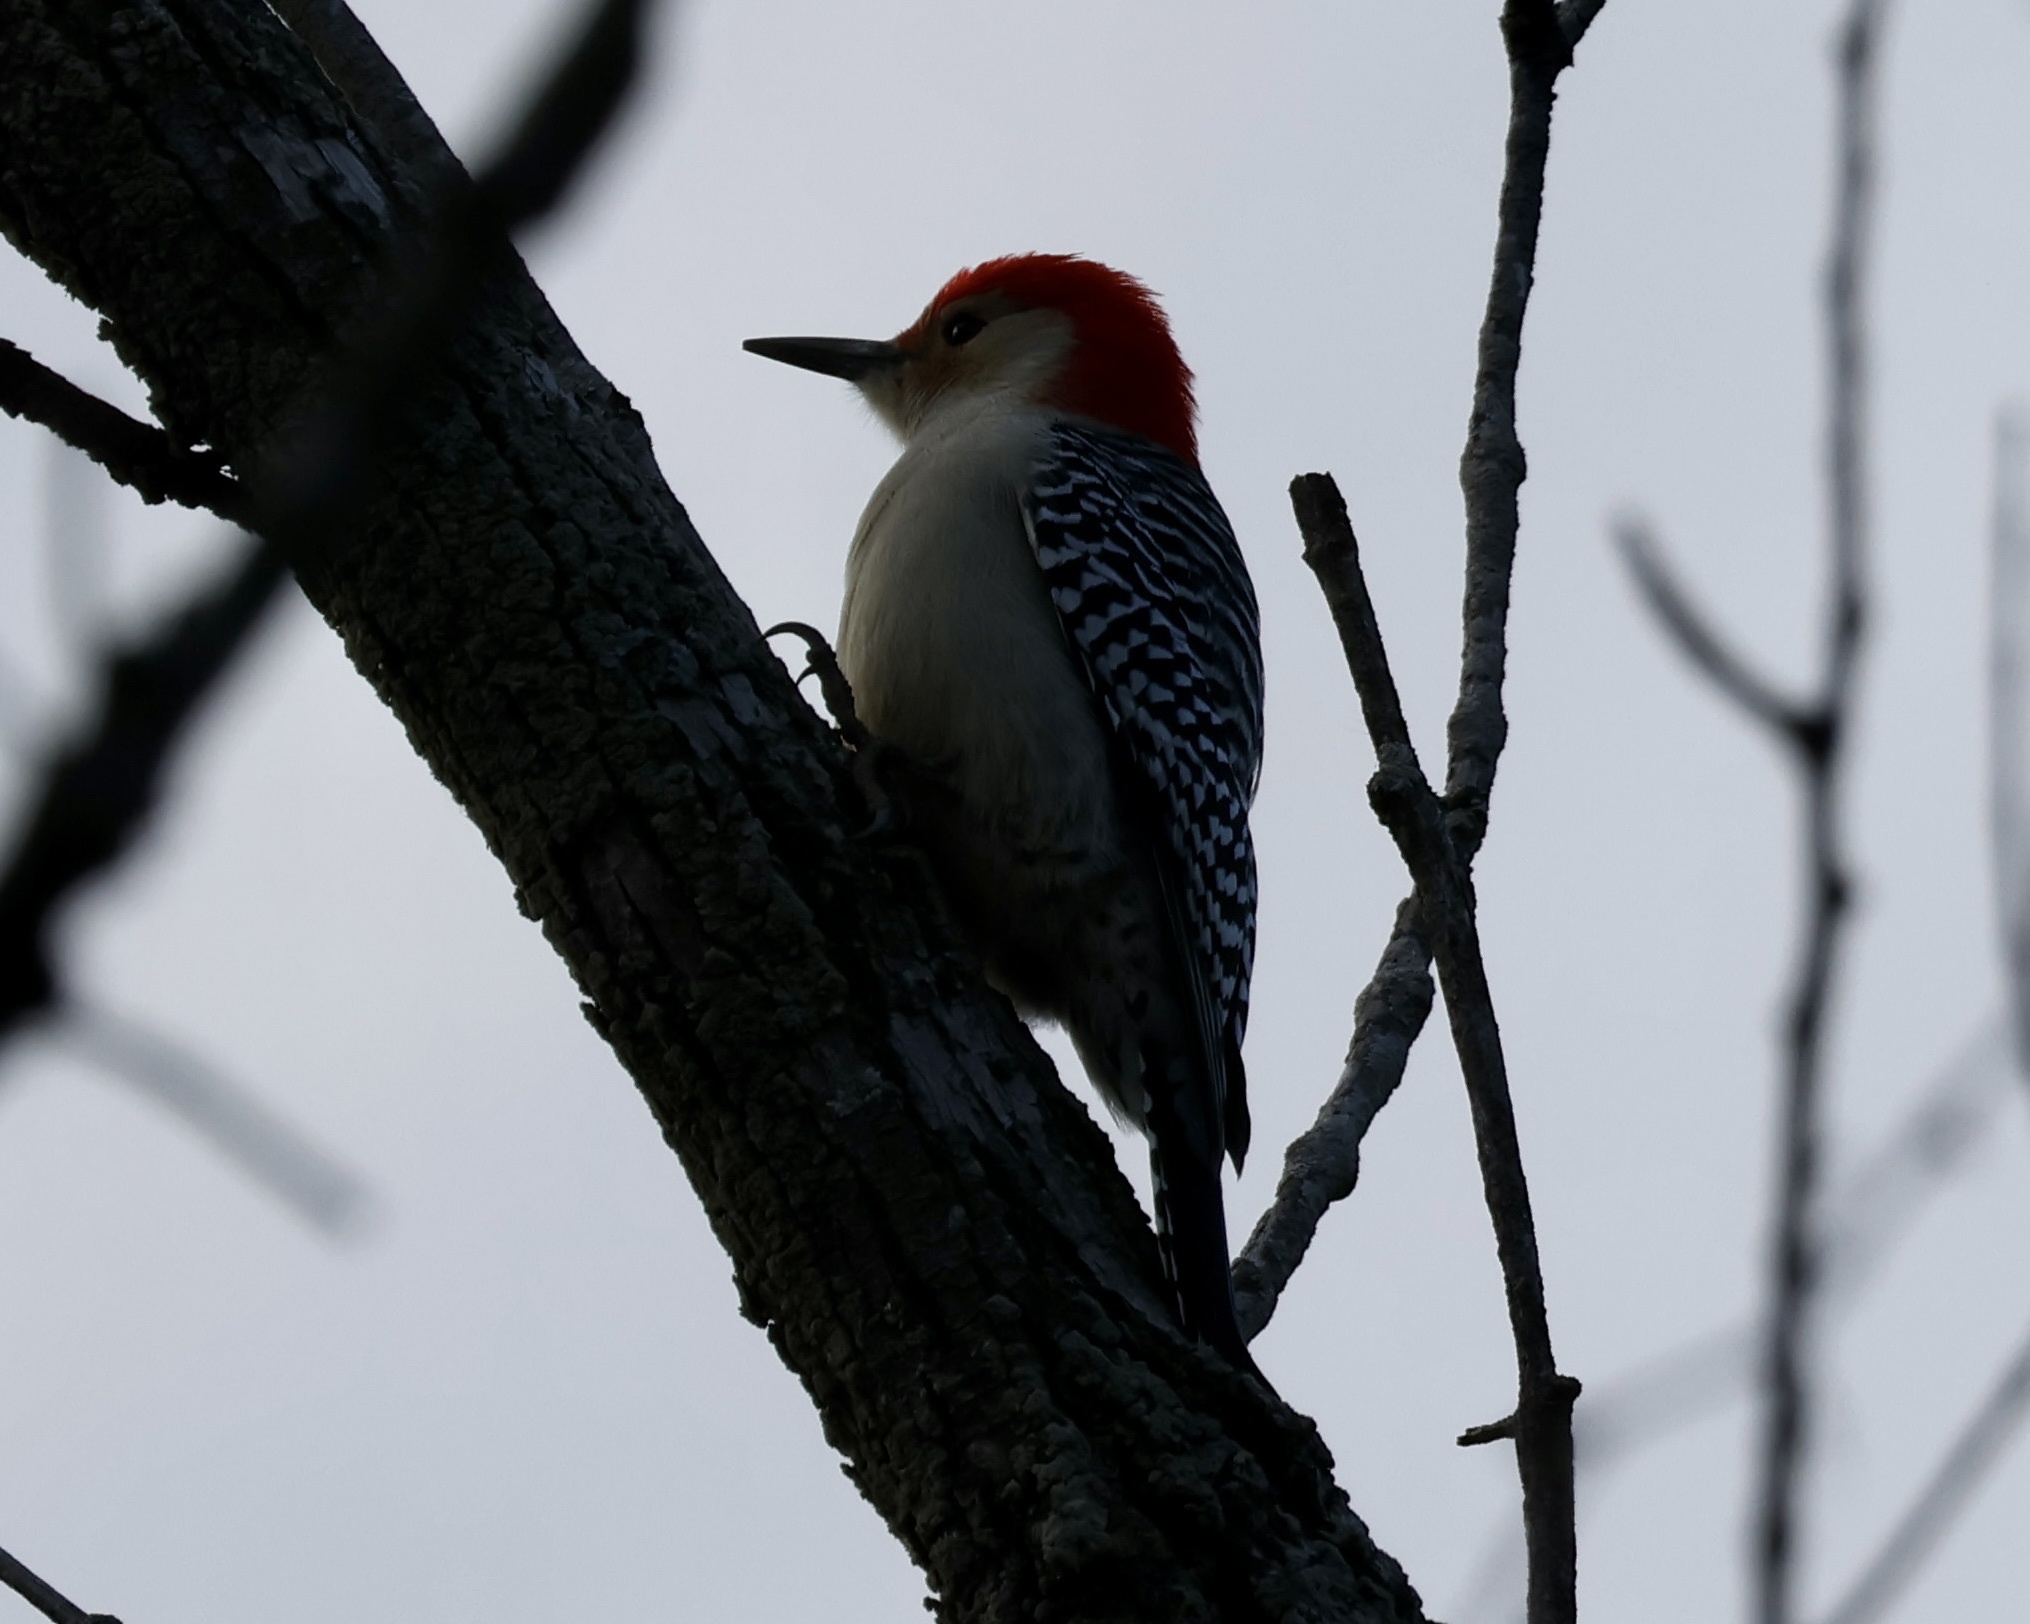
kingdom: Animalia
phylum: Chordata
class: Aves
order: Piciformes
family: Picidae
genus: Melanerpes
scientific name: Melanerpes carolinus
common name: Red-bellied woodpecker
